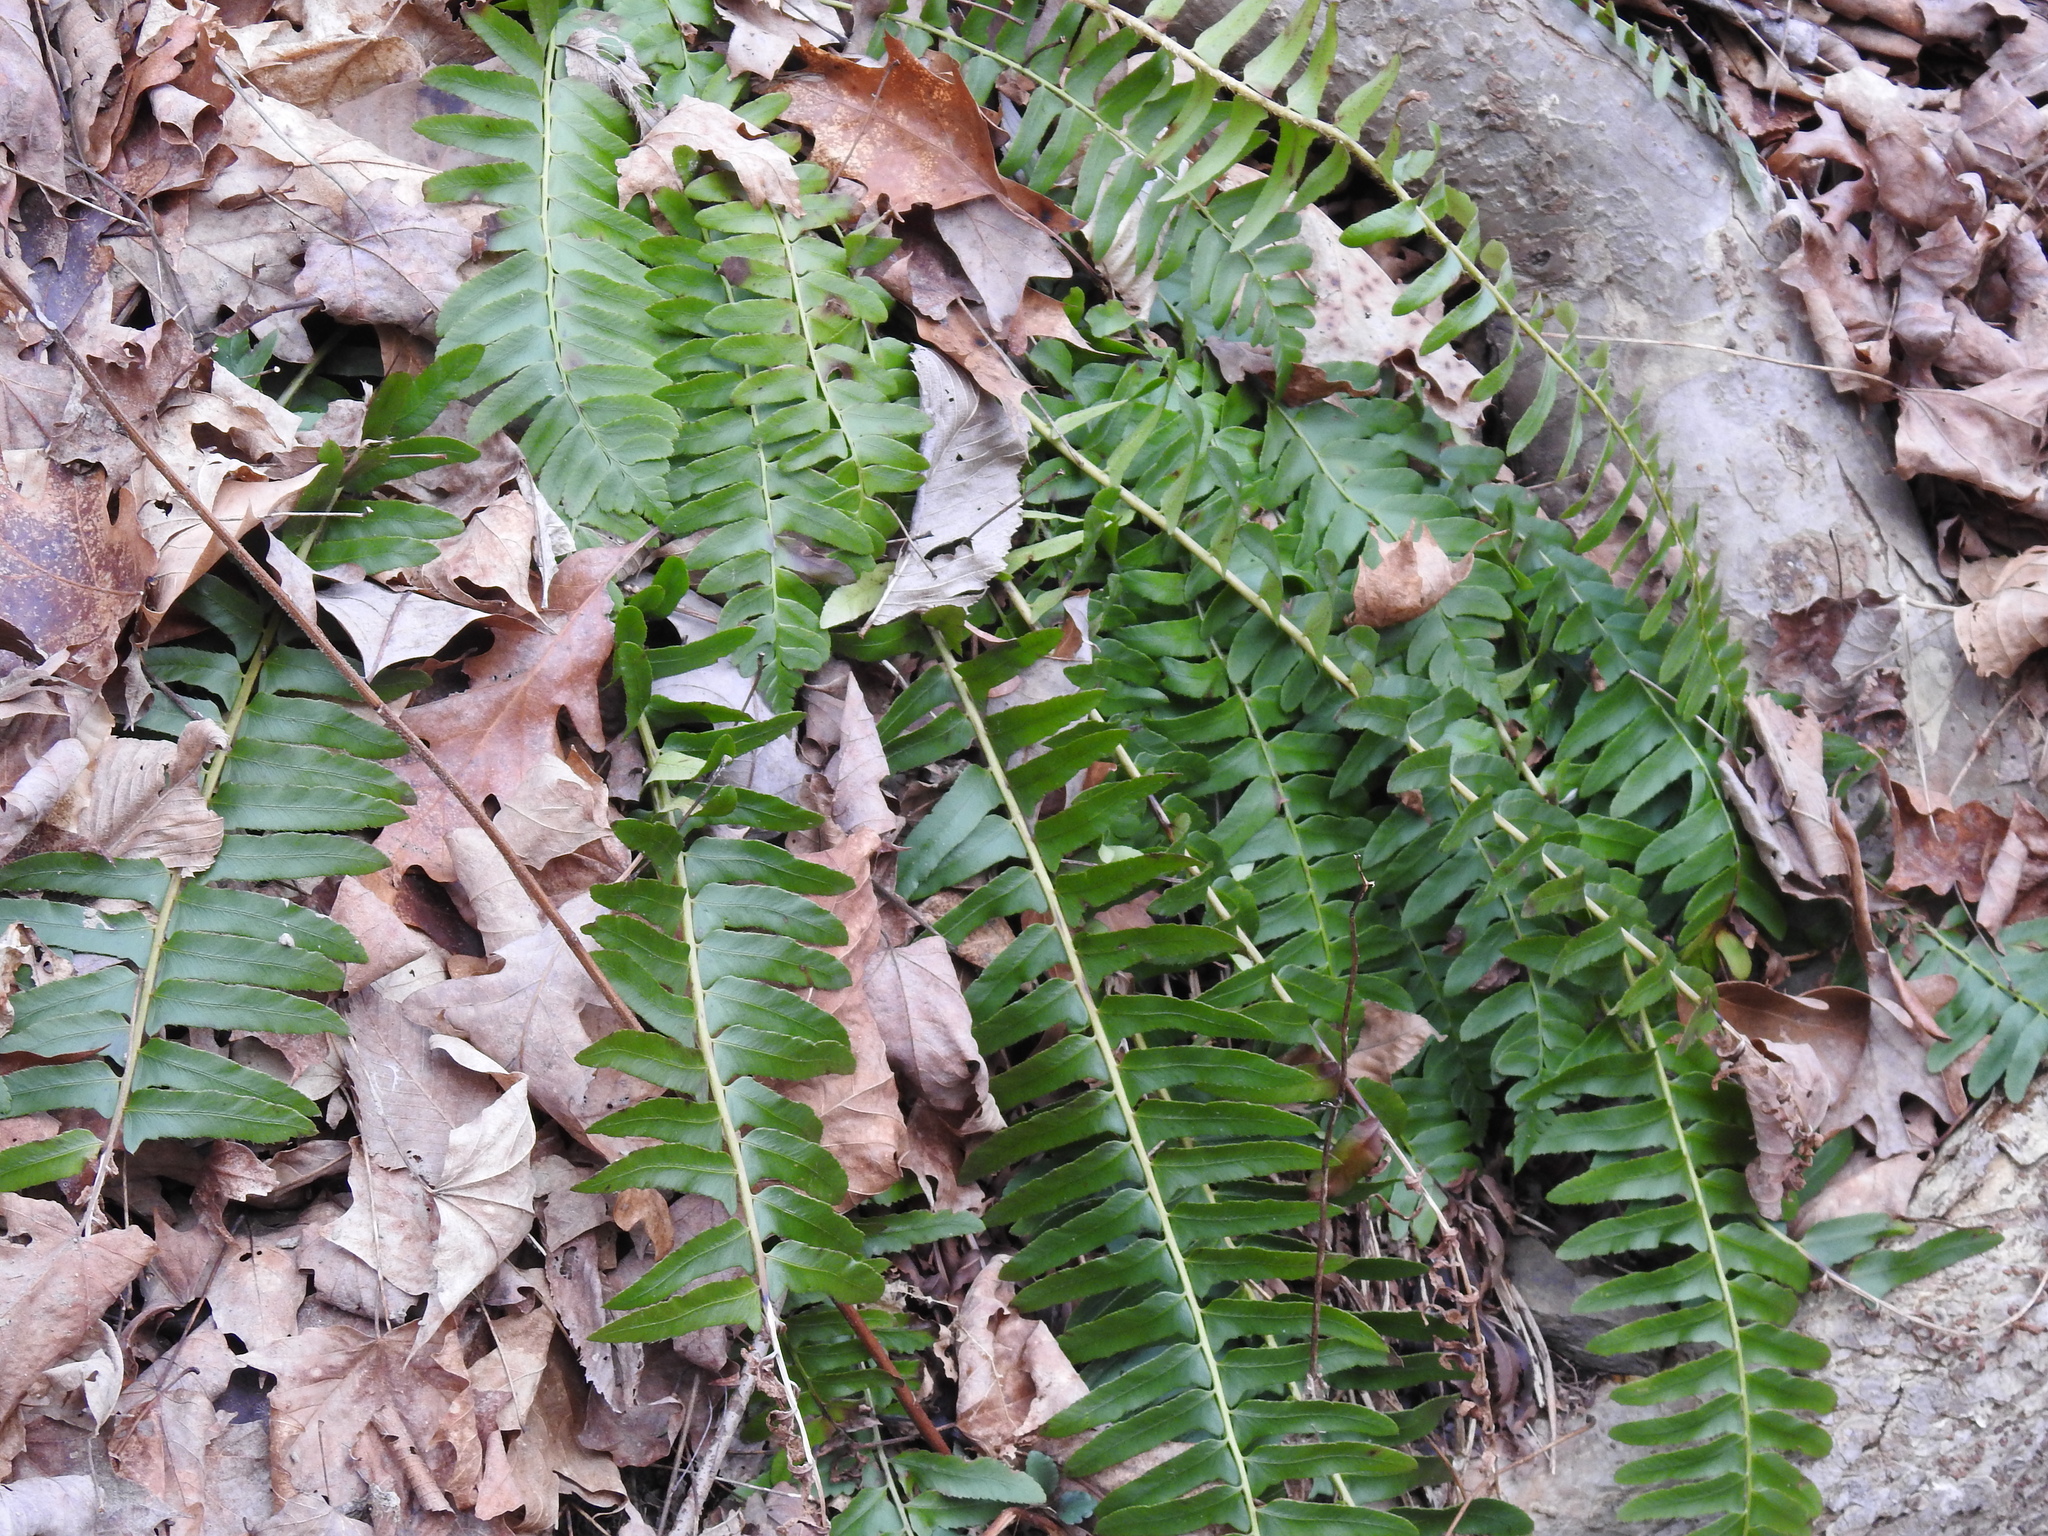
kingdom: Plantae
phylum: Tracheophyta
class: Polypodiopsida
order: Polypodiales
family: Dryopteridaceae
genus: Polystichum
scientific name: Polystichum acrostichoides
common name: Christmas fern
